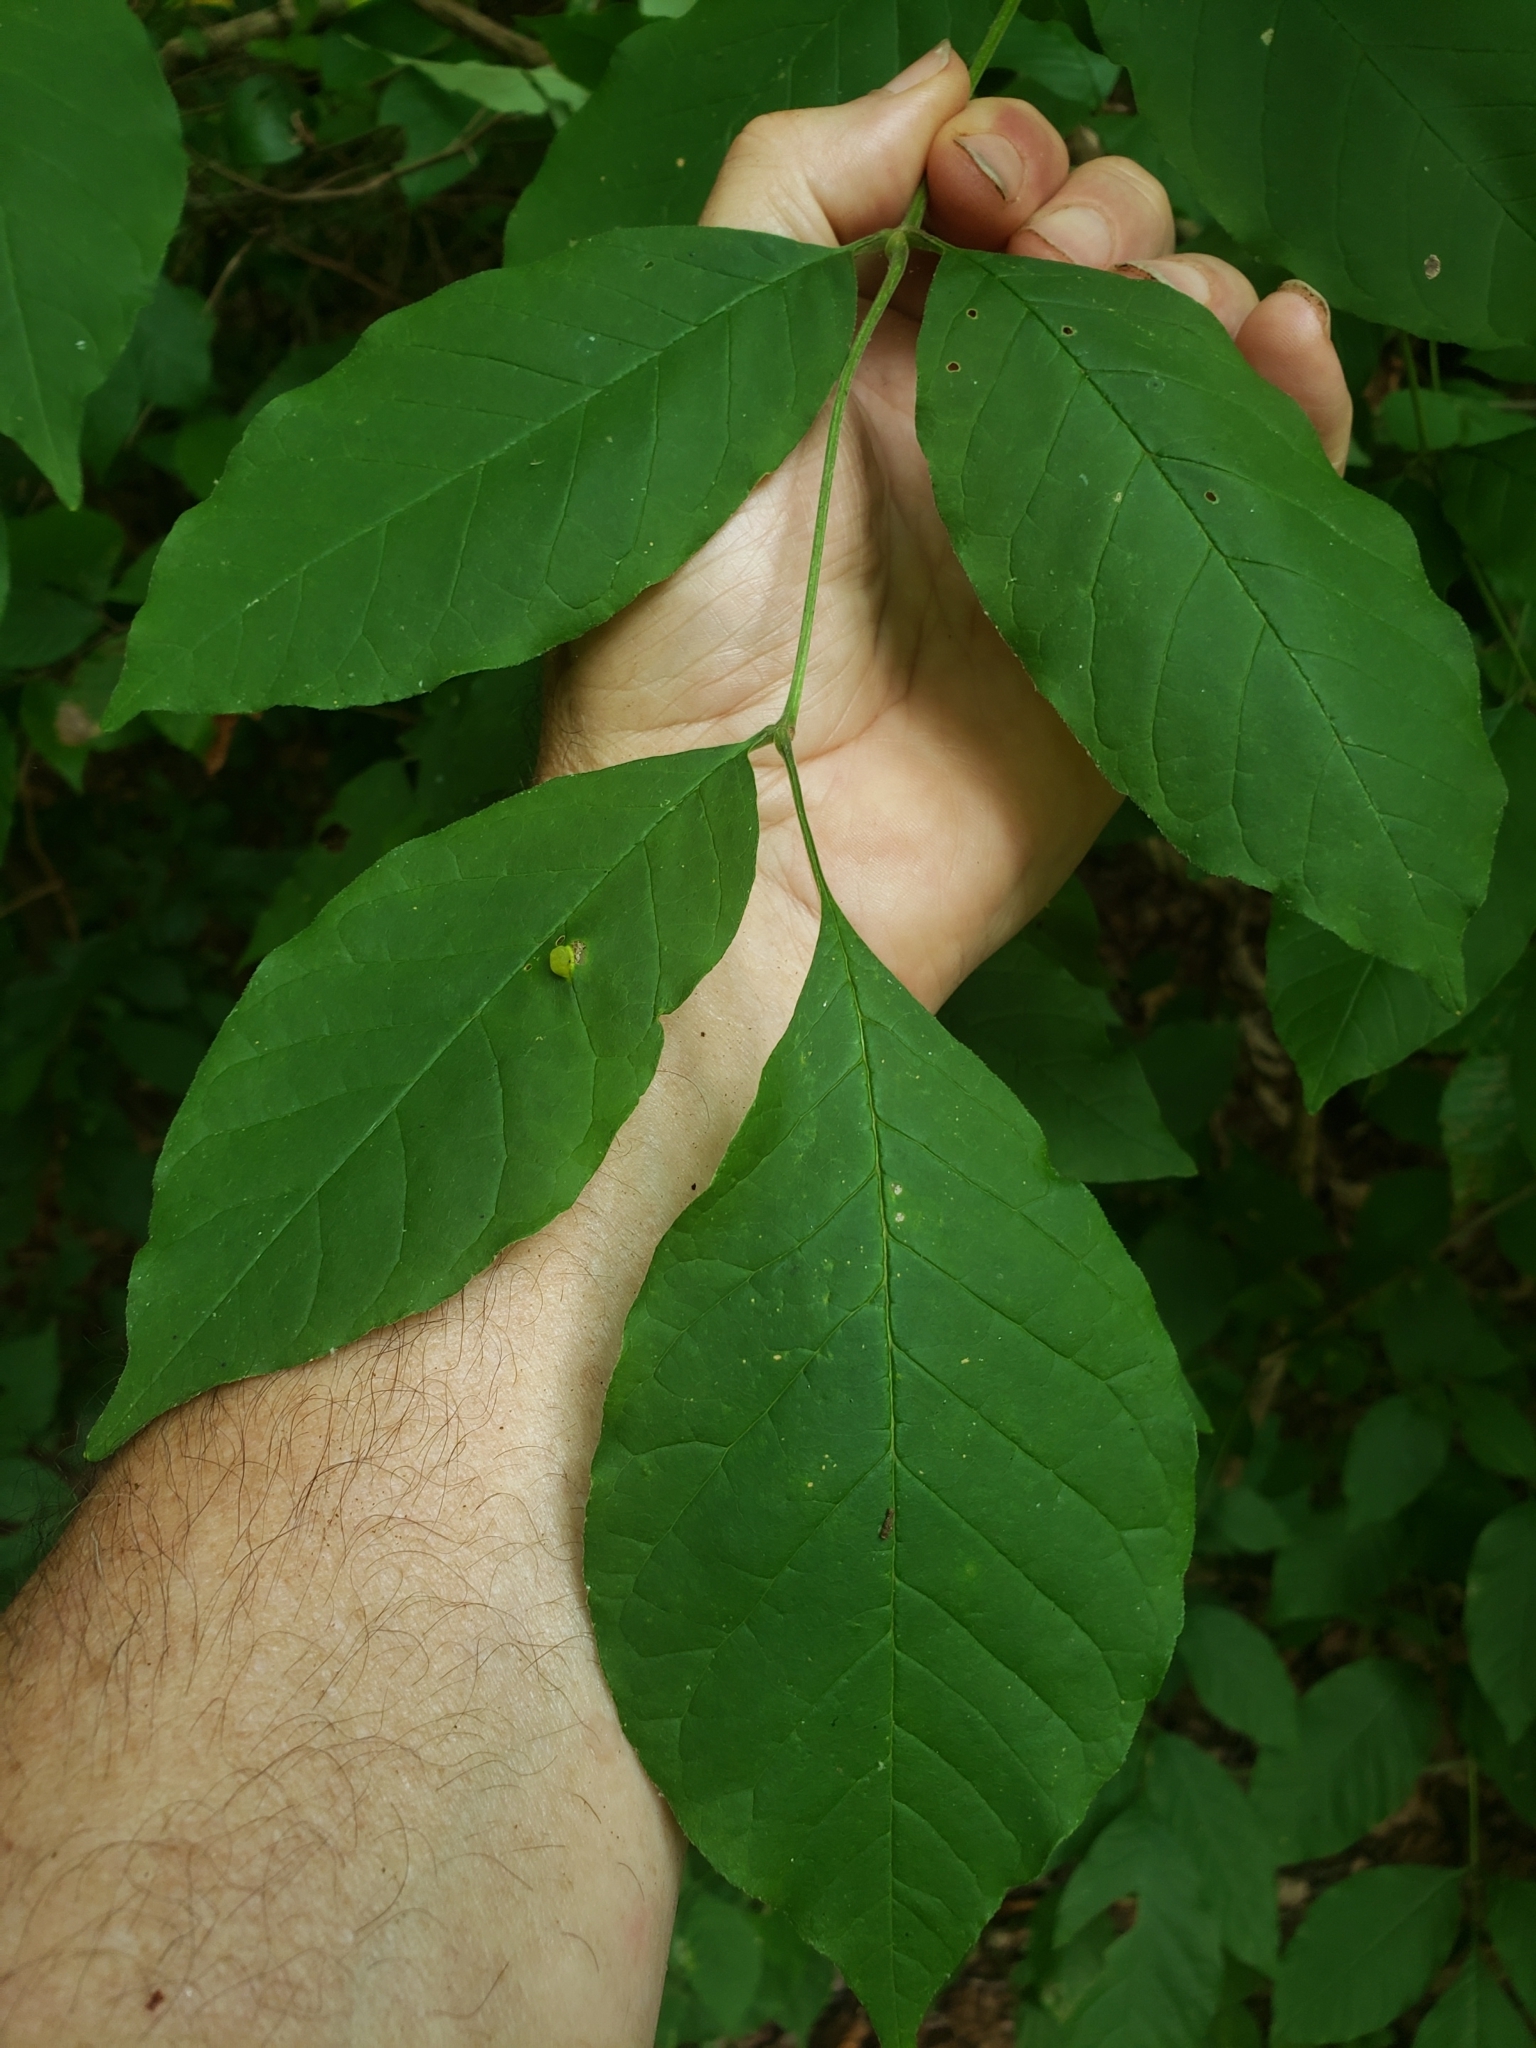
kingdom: Animalia
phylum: Arthropoda
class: Insecta
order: Diptera
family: Cecidomyiidae
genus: Dasineura
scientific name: Dasineura pellex
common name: Ash bullet gall midge
